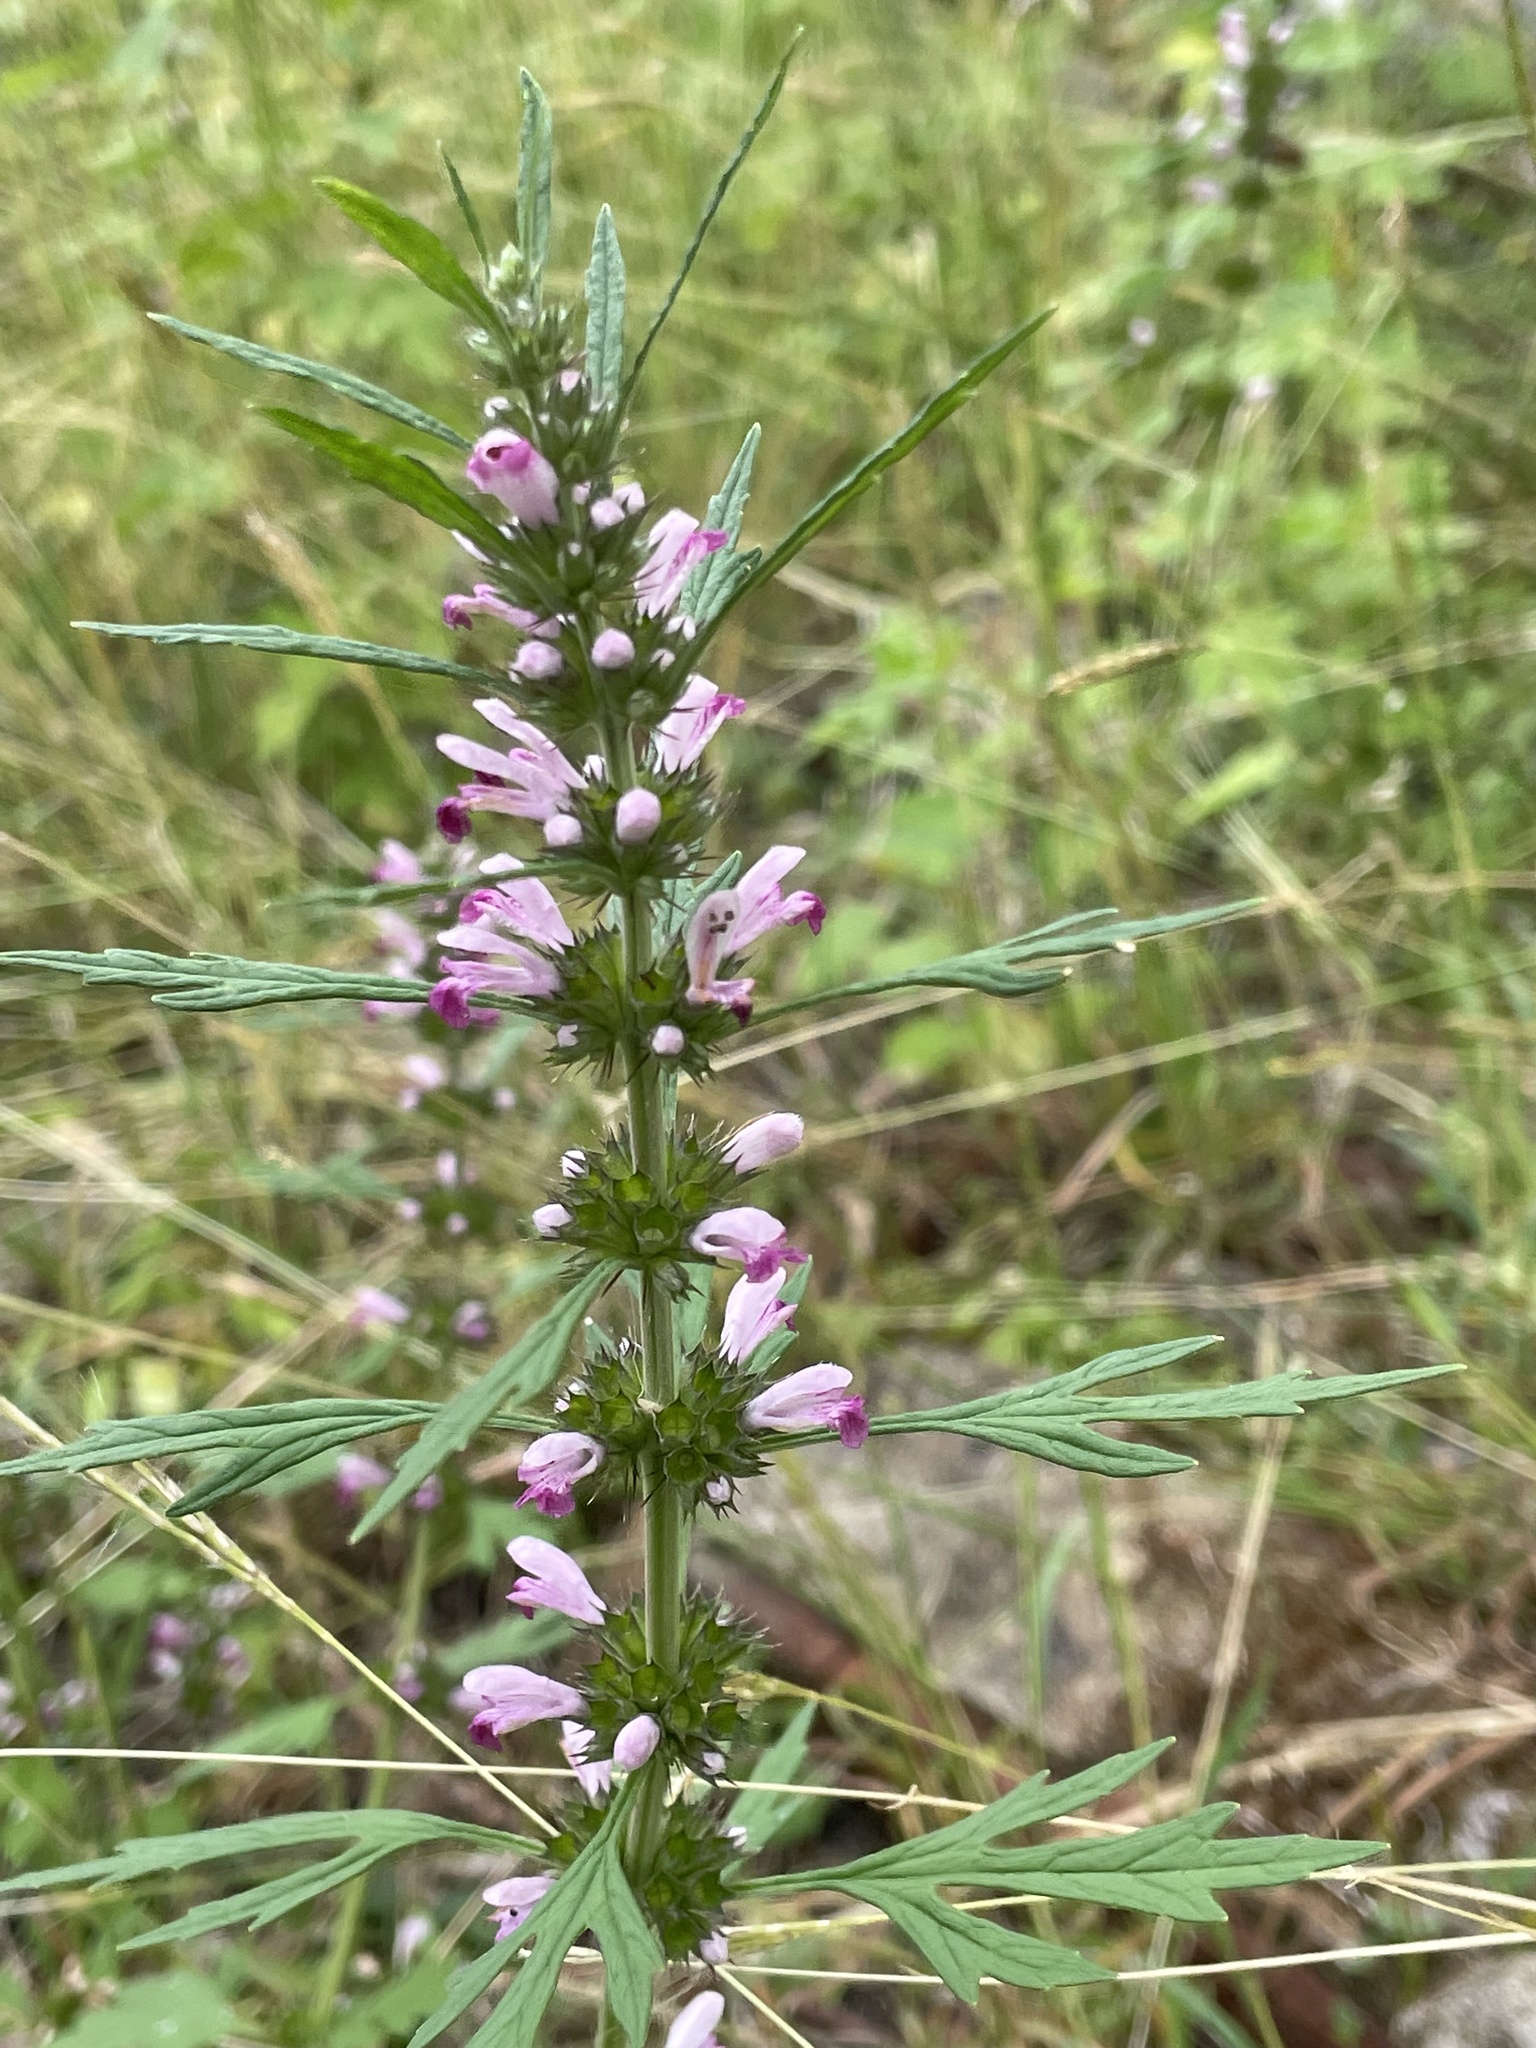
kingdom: Plantae
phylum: Tracheophyta
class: Magnoliopsida
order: Lamiales
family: Lamiaceae
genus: Leonurus
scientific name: Leonurus japonicus
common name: Honeyweed
